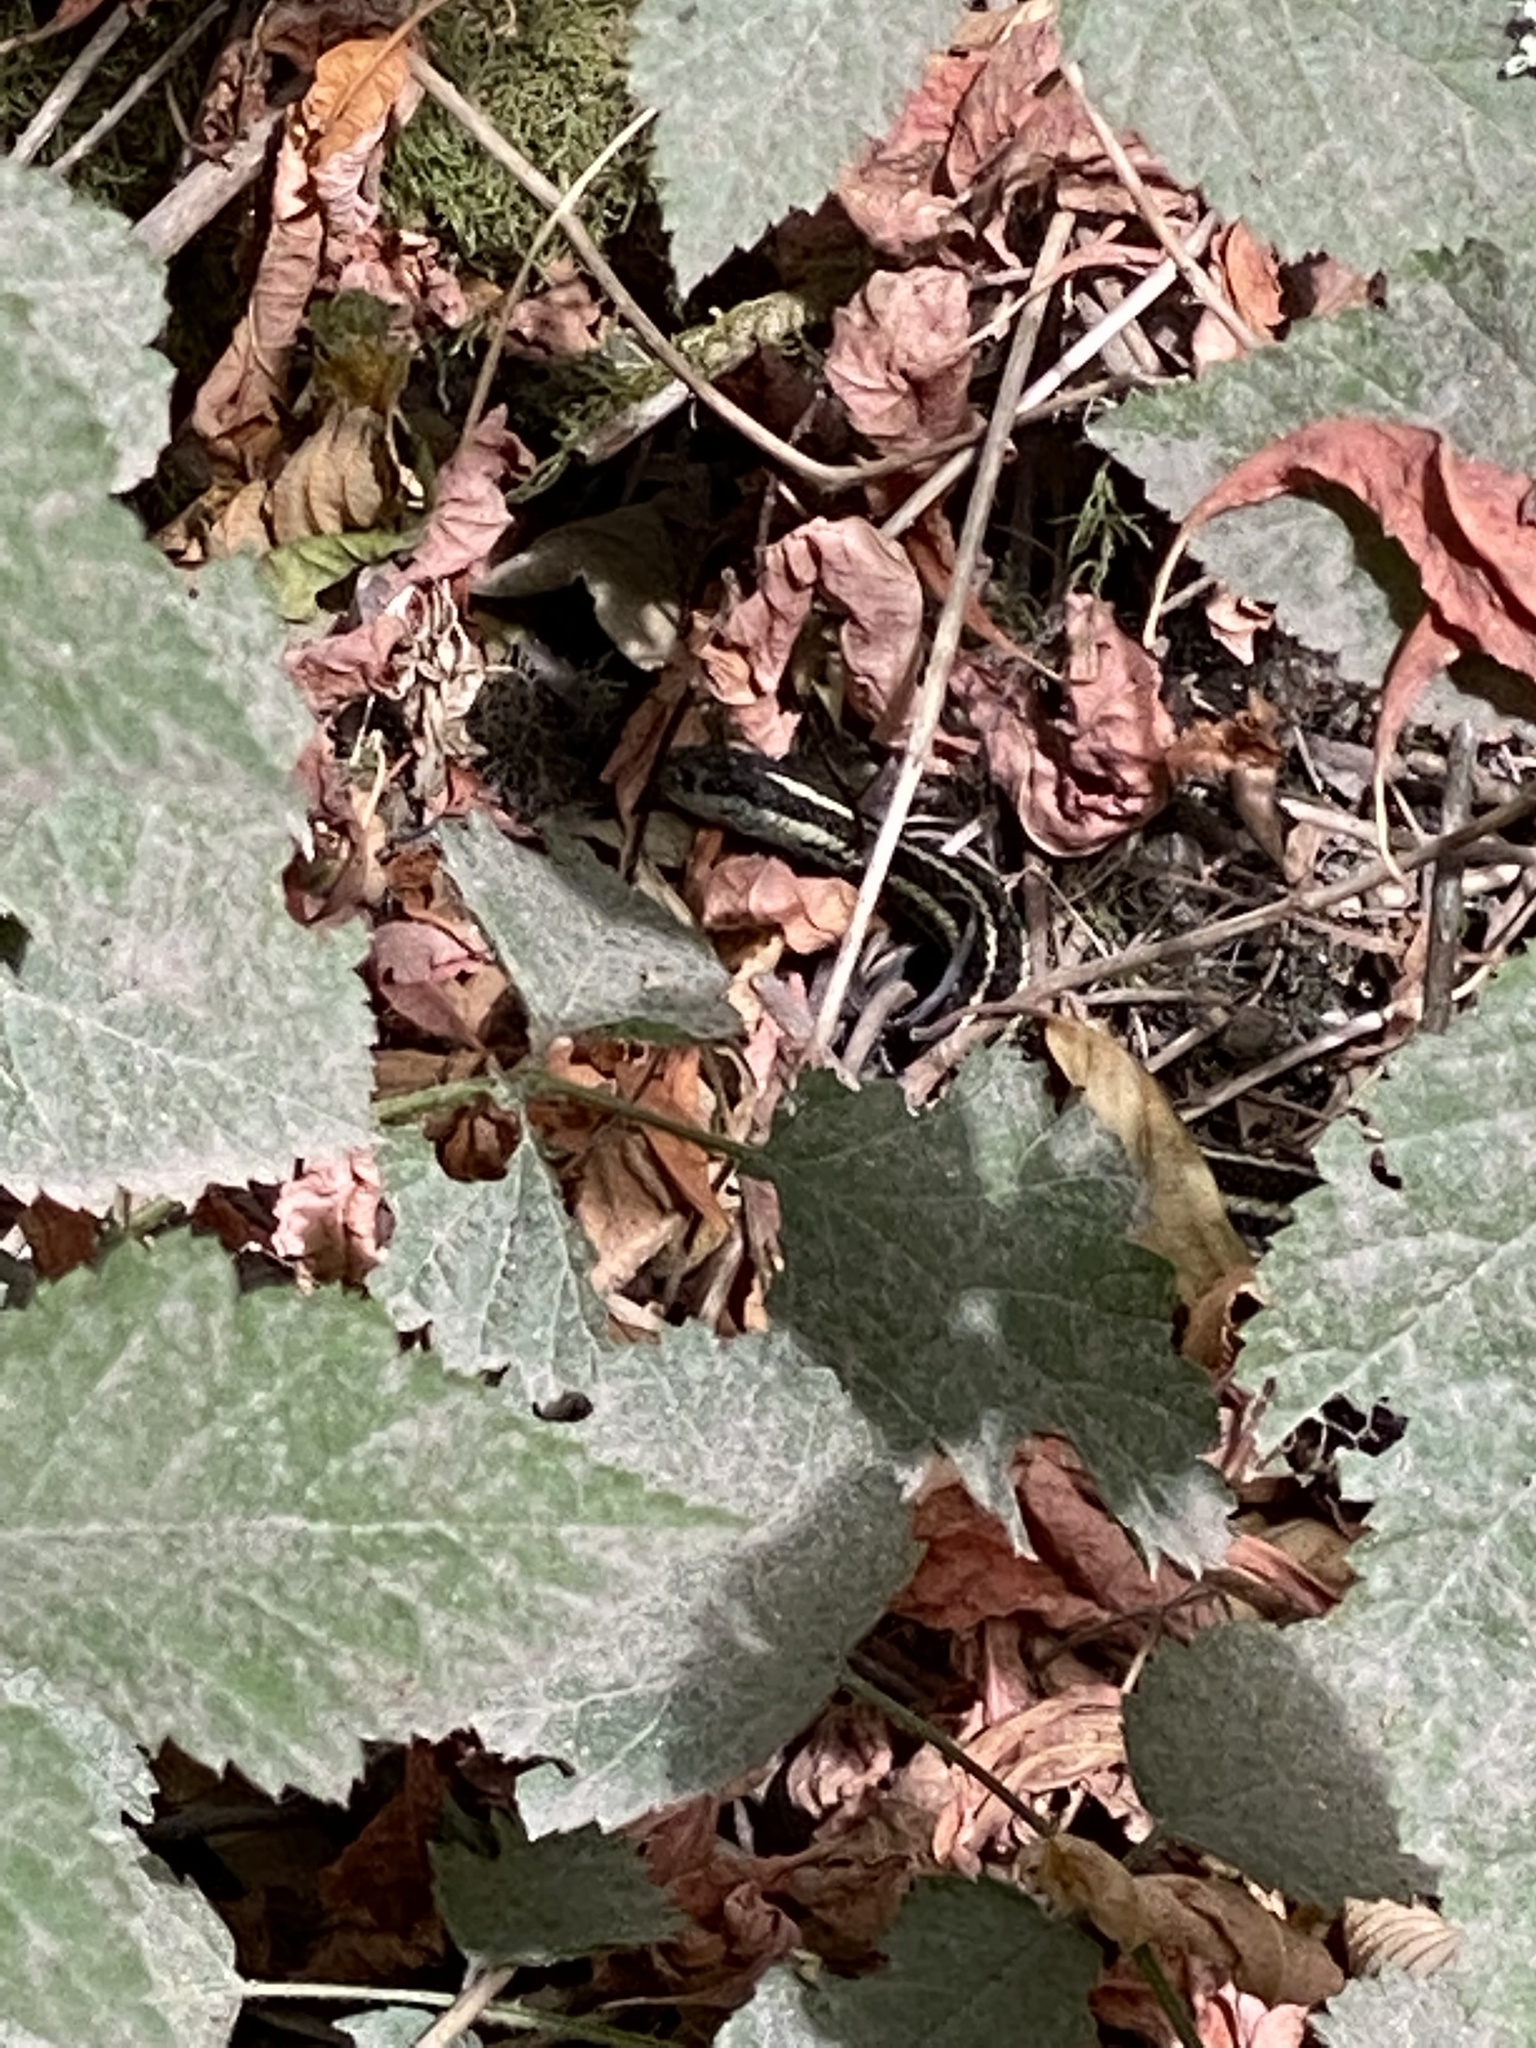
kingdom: Animalia
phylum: Chordata
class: Squamata
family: Colubridae
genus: Thamnophis
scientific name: Thamnophis ordinoides
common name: Northwestern garter snake
